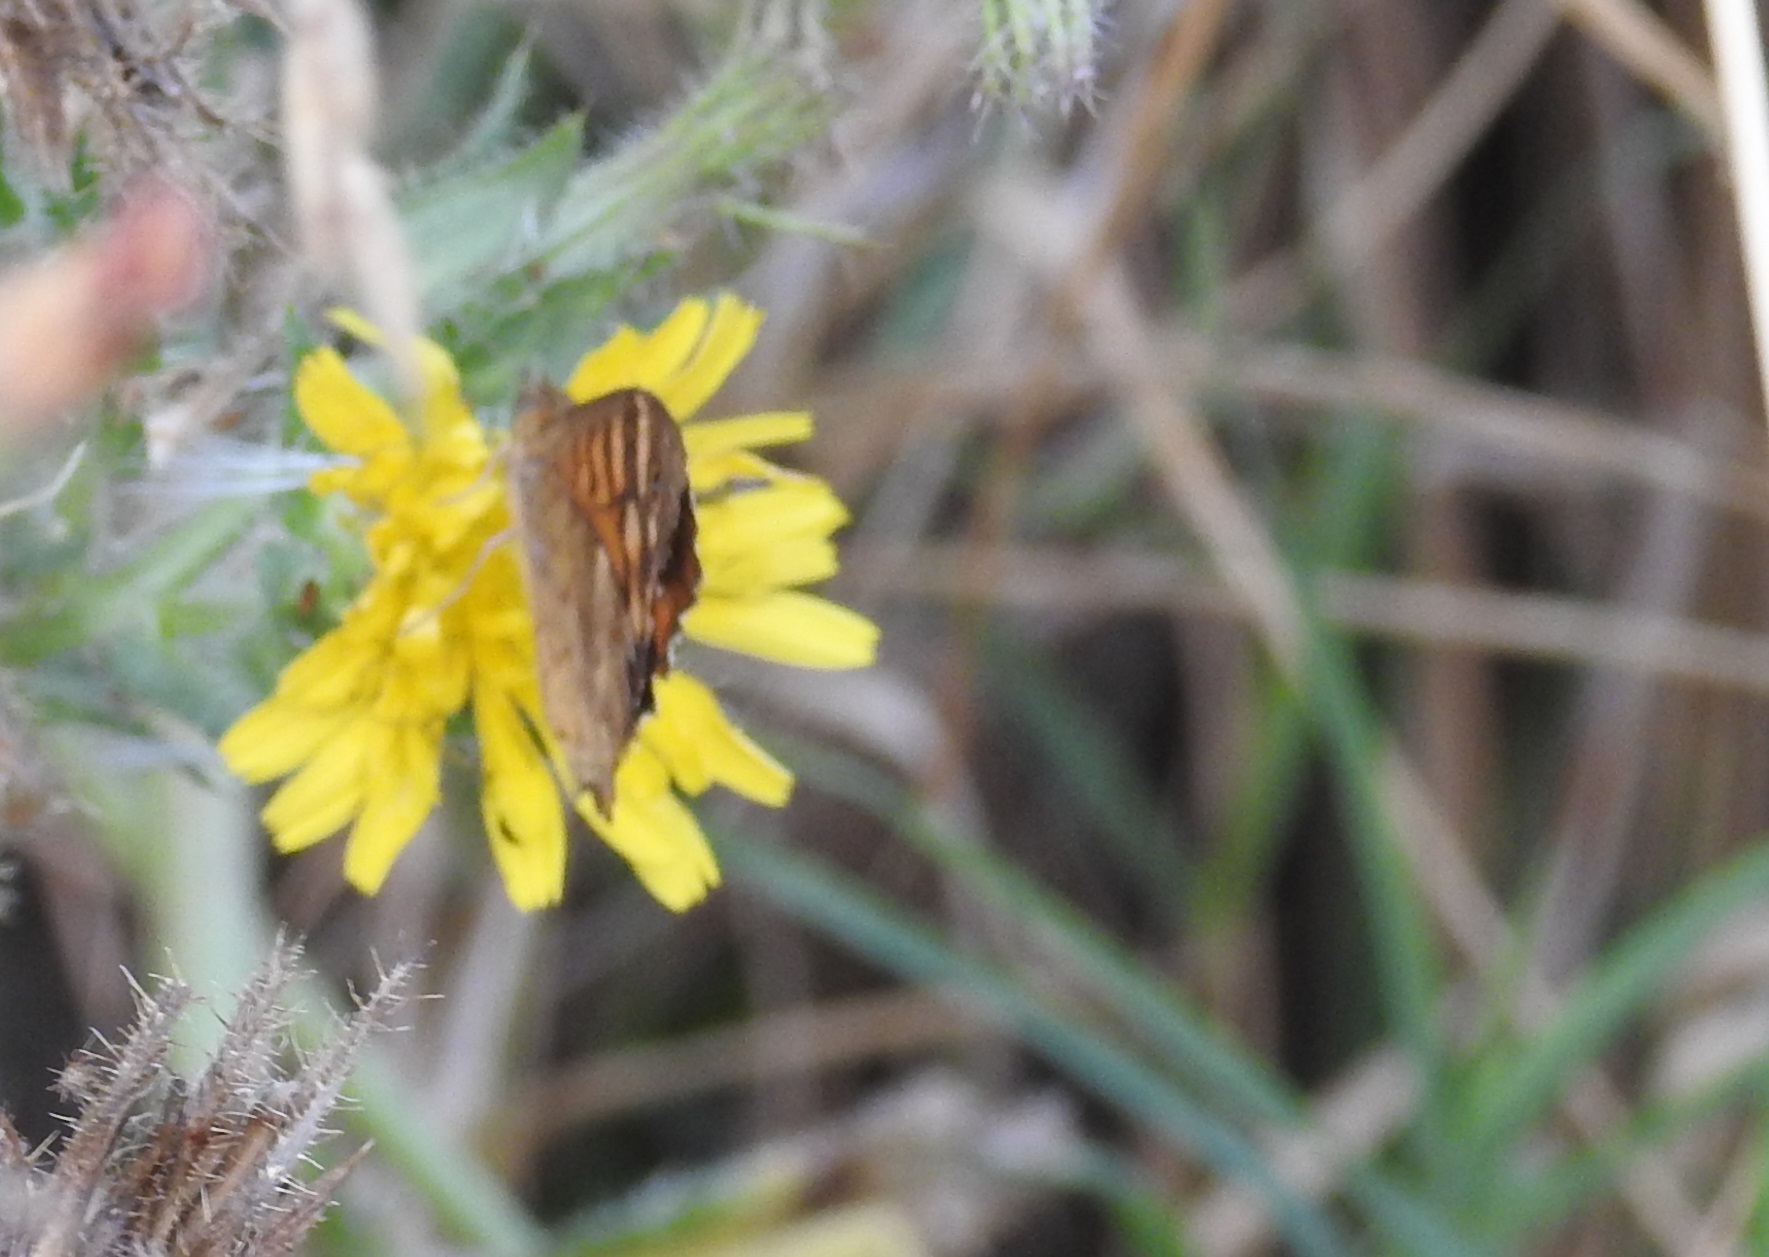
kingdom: Animalia
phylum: Arthropoda
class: Insecta
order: Lepidoptera
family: Nymphalidae
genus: Pararge
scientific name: Pararge aegeria
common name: Speckled wood
